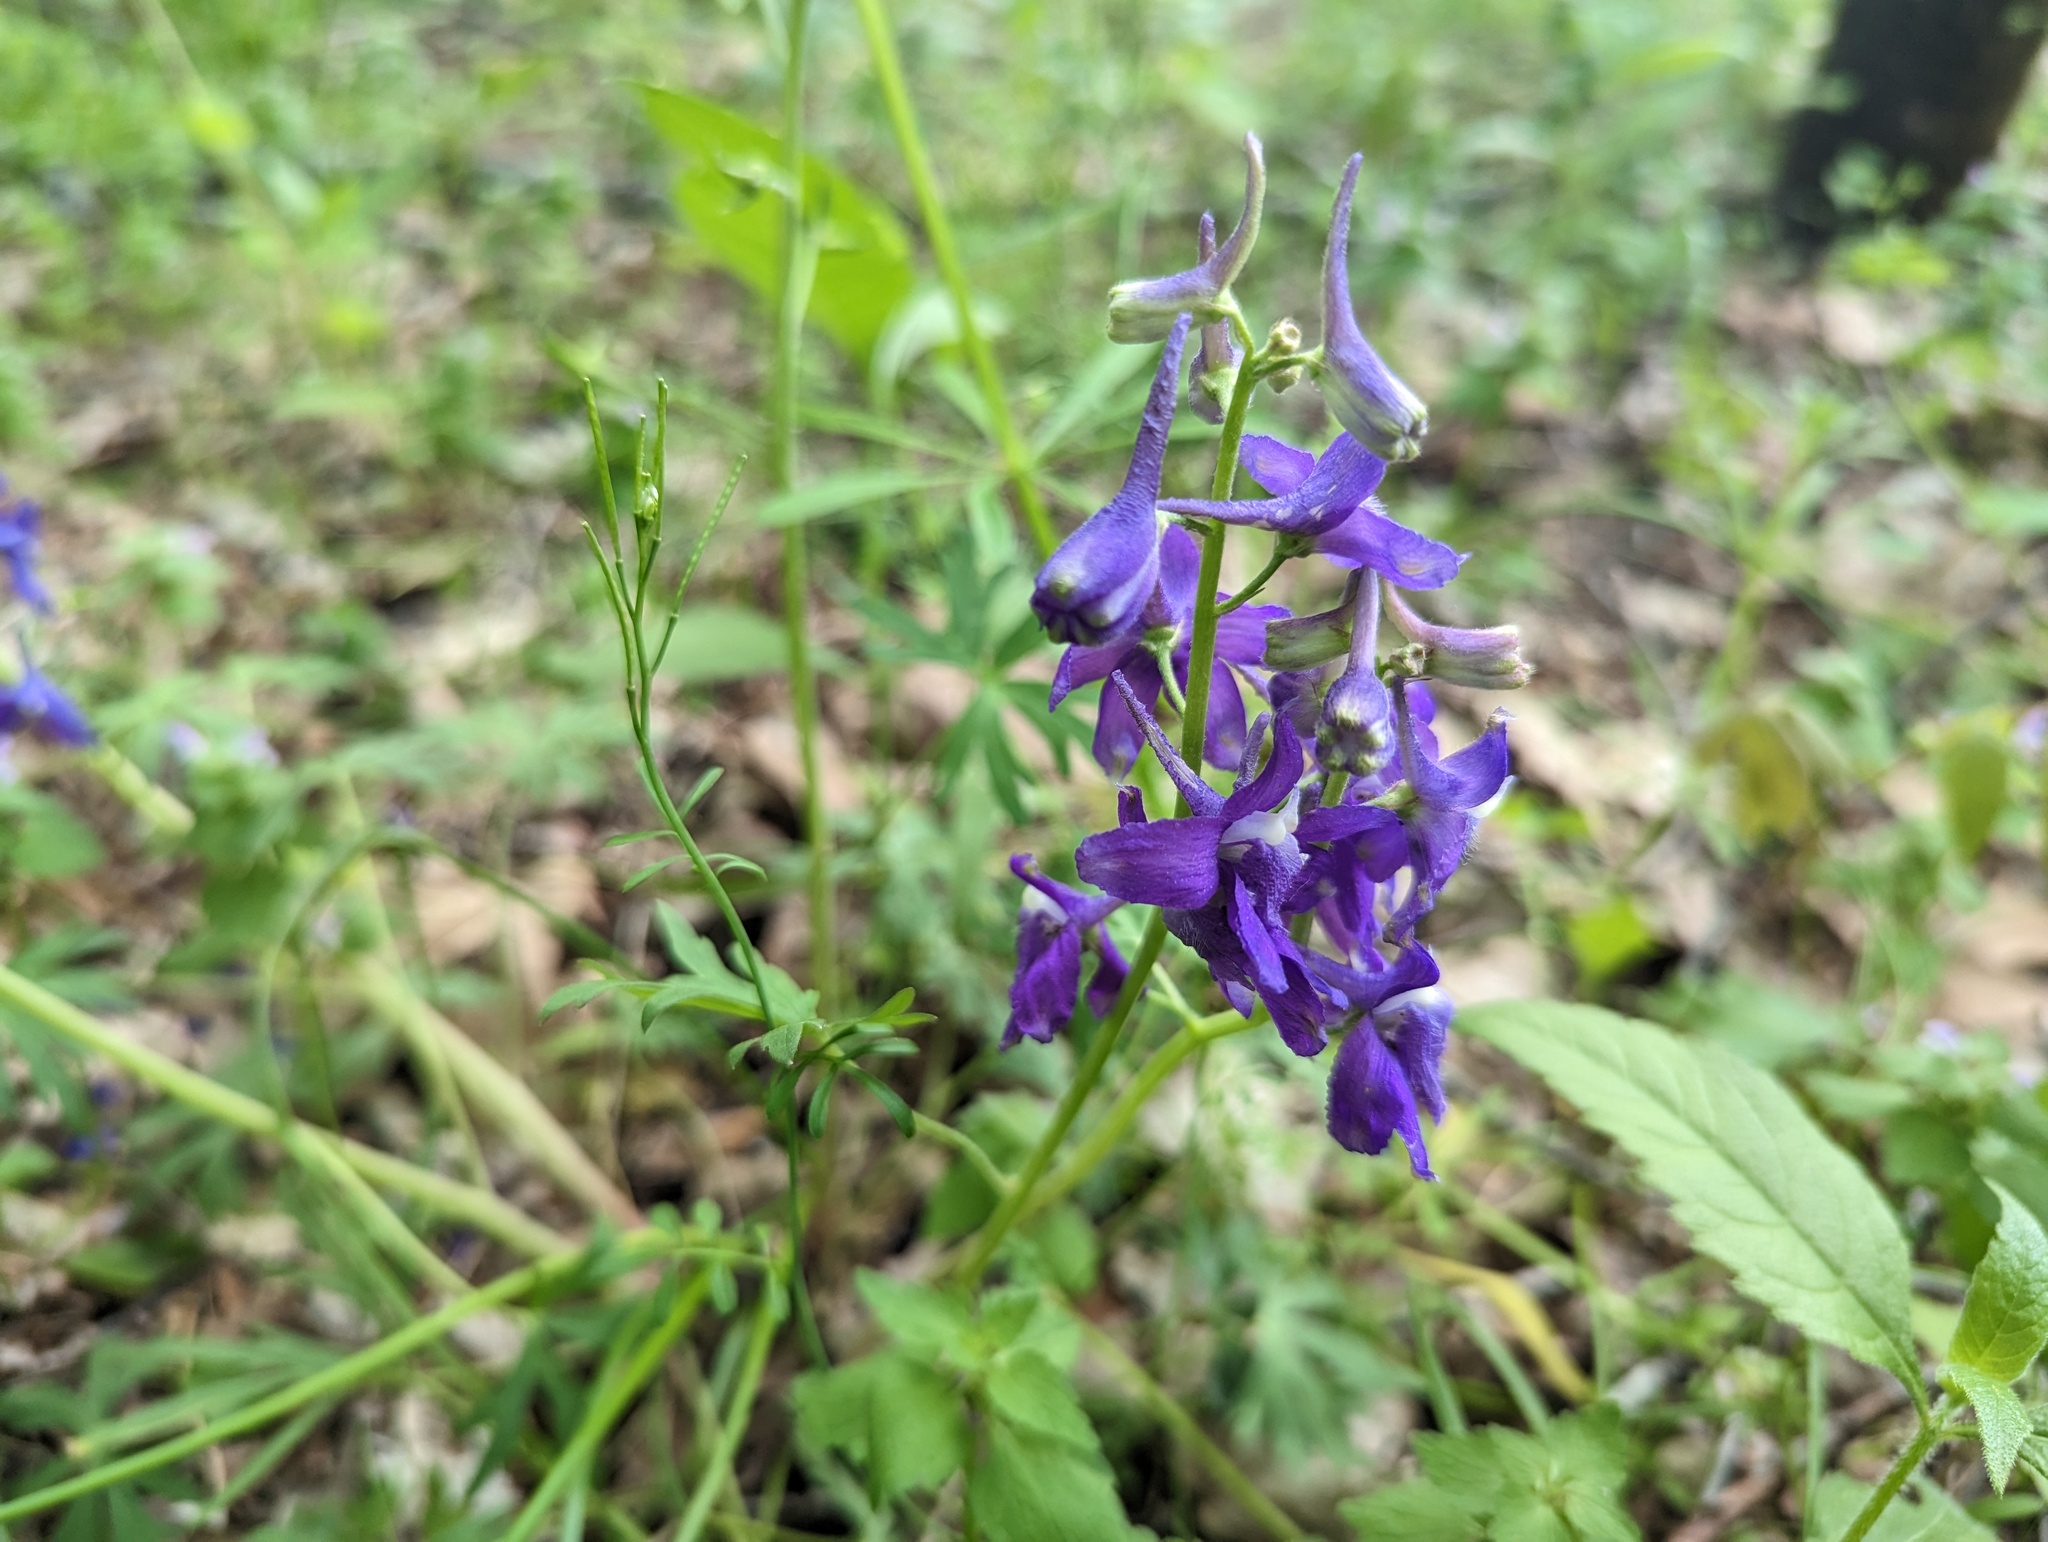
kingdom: Plantae
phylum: Tracheophyta
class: Magnoliopsida
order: Ranunculales
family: Ranunculaceae
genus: Delphinium
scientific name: Delphinium tricorne
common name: Dwarf larkspur
